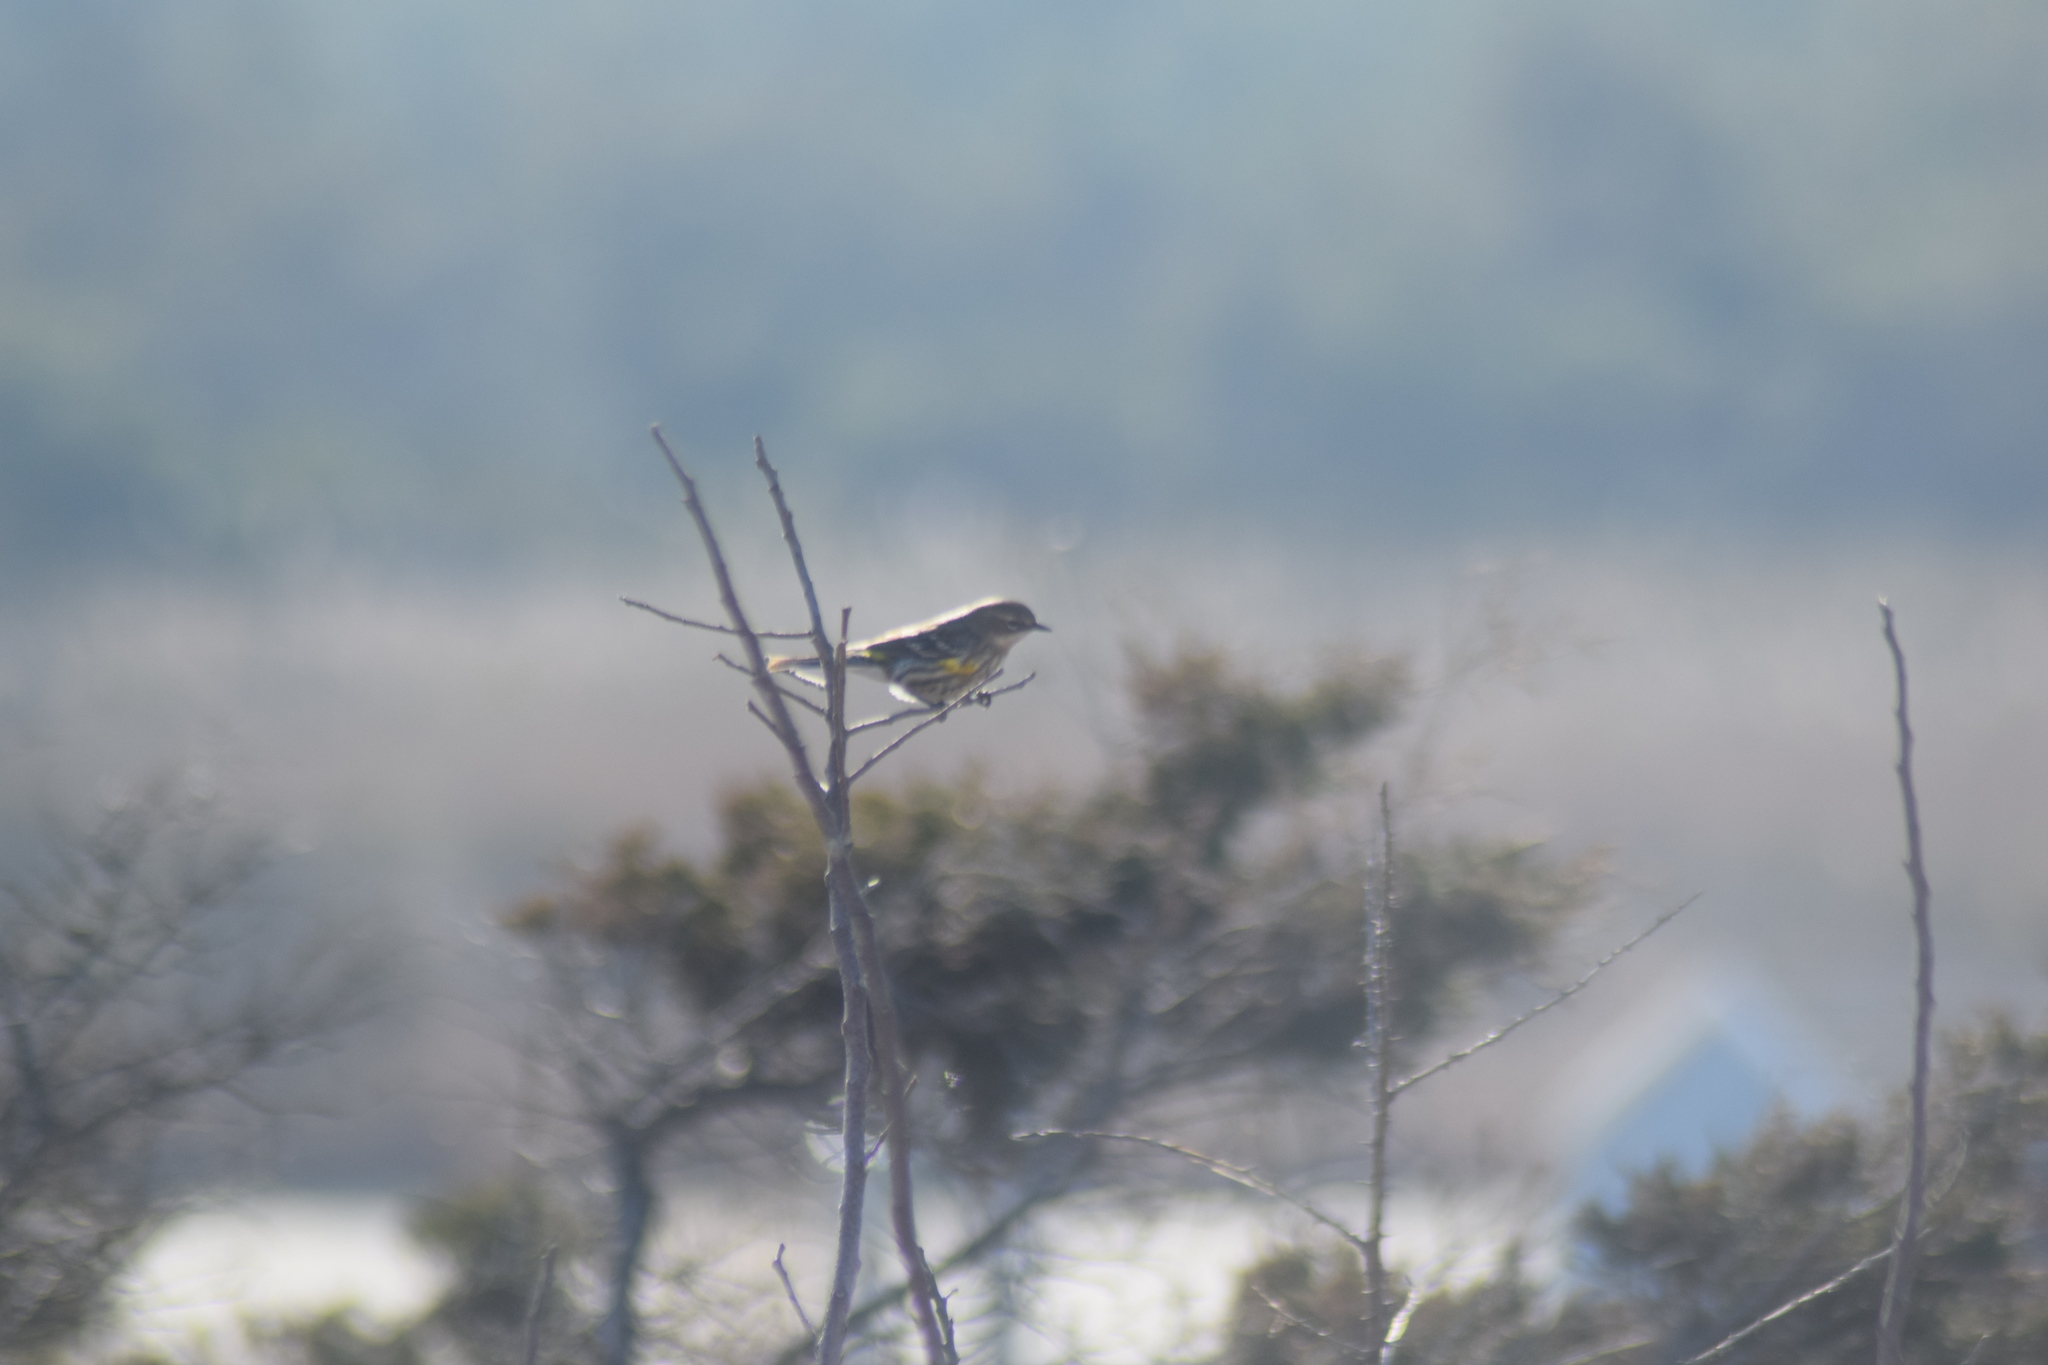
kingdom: Animalia
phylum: Chordata
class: Aves
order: Passeriformes
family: Parulidae
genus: Setophaga
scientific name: Setophaga coronata
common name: Myrtle warbler
